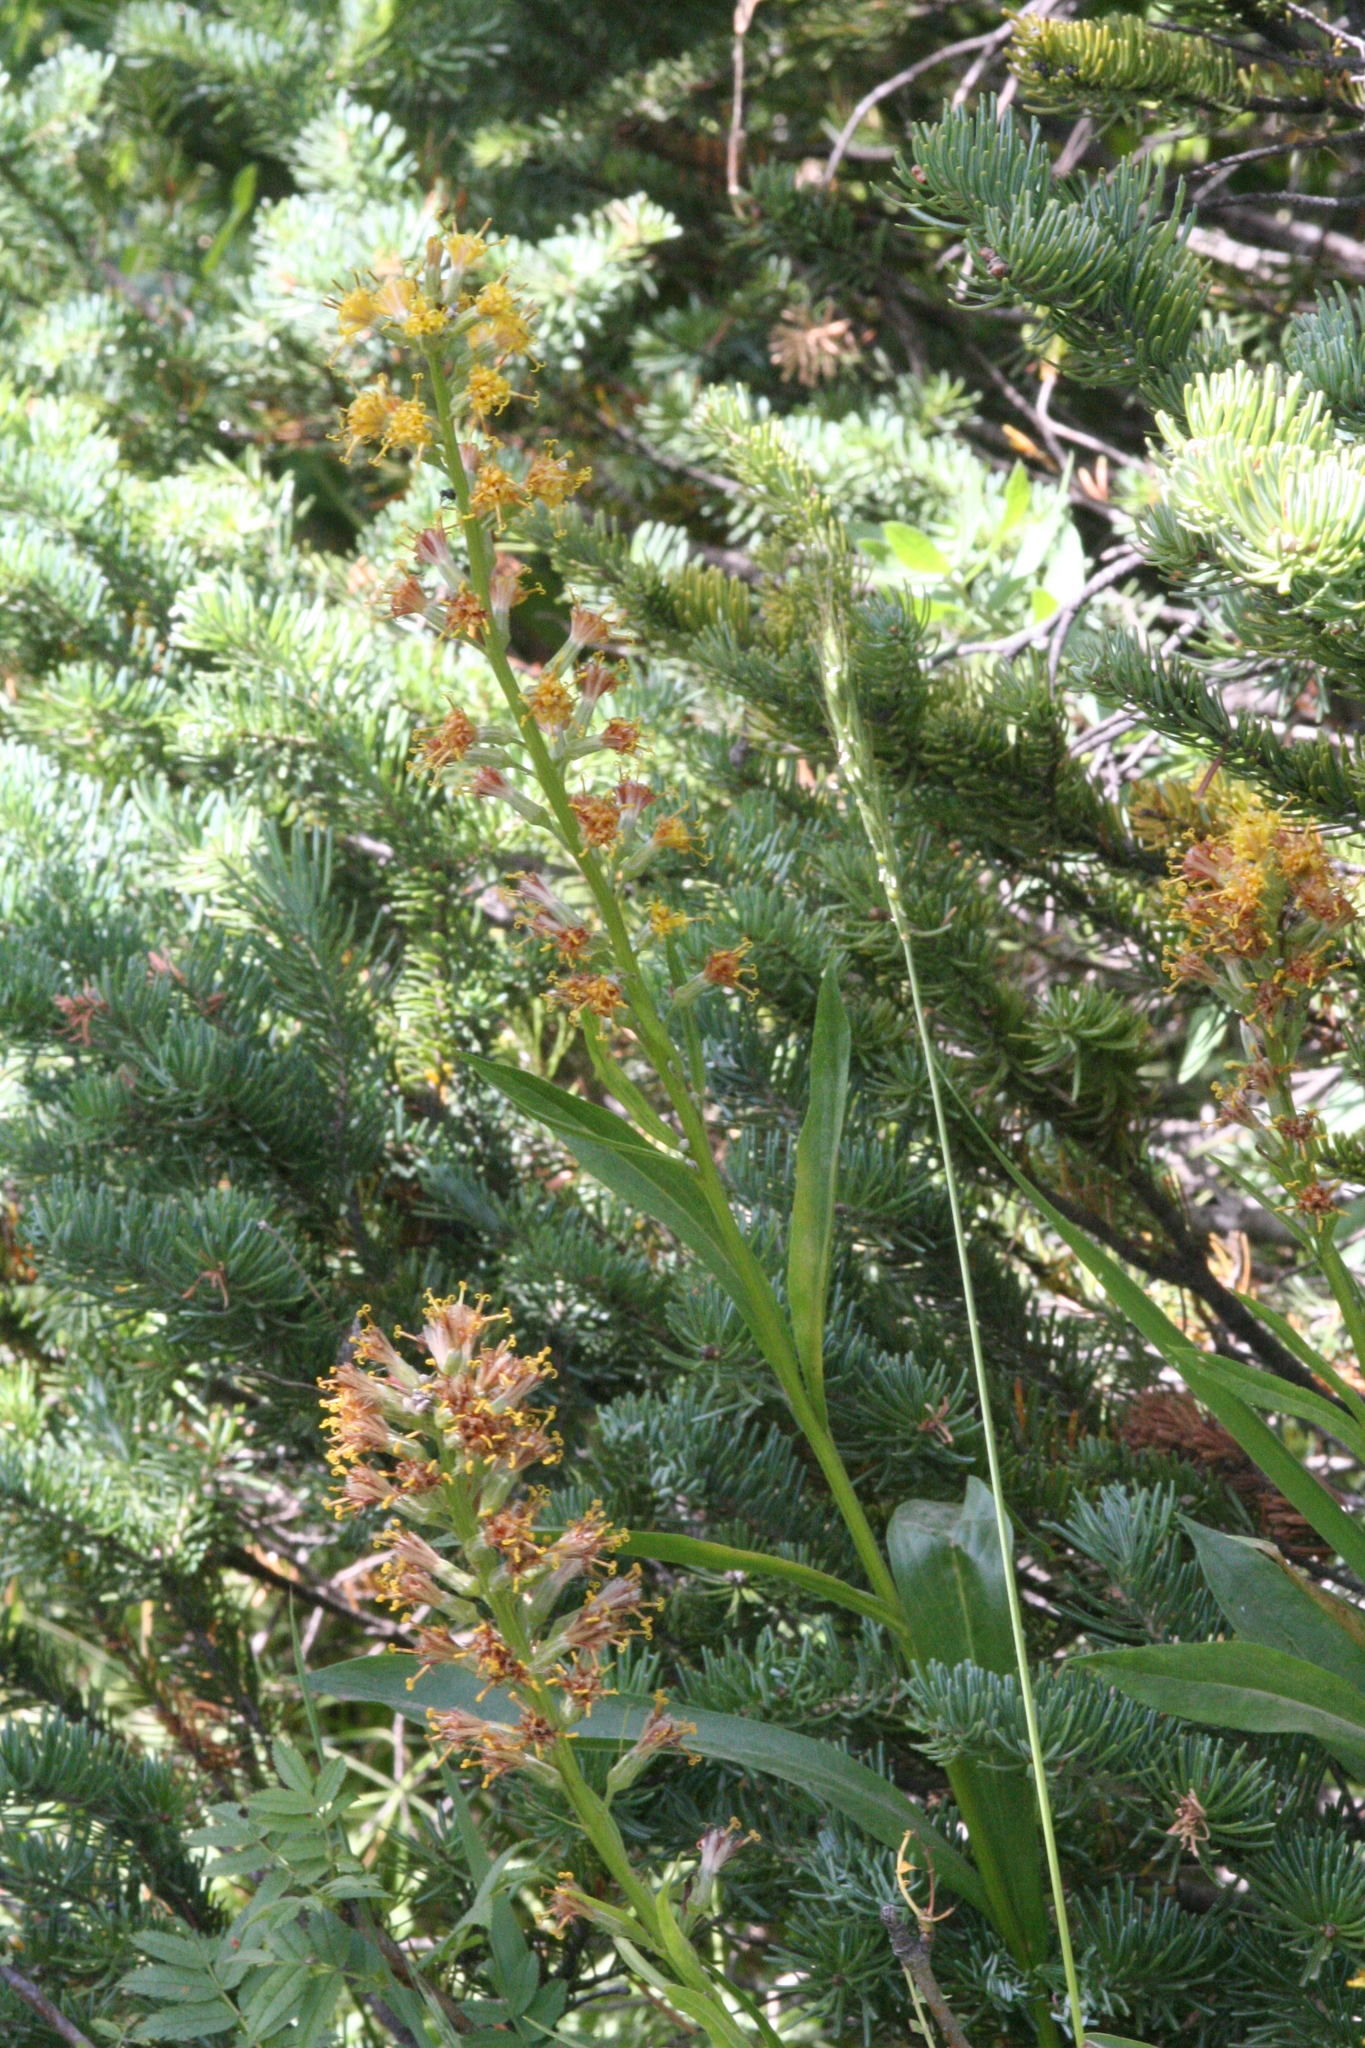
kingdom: Plantae
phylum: Tracheophyta
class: Magnoliopsida
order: Asterales
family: Asteraceae
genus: Rainiera
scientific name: Rainiera stricta
